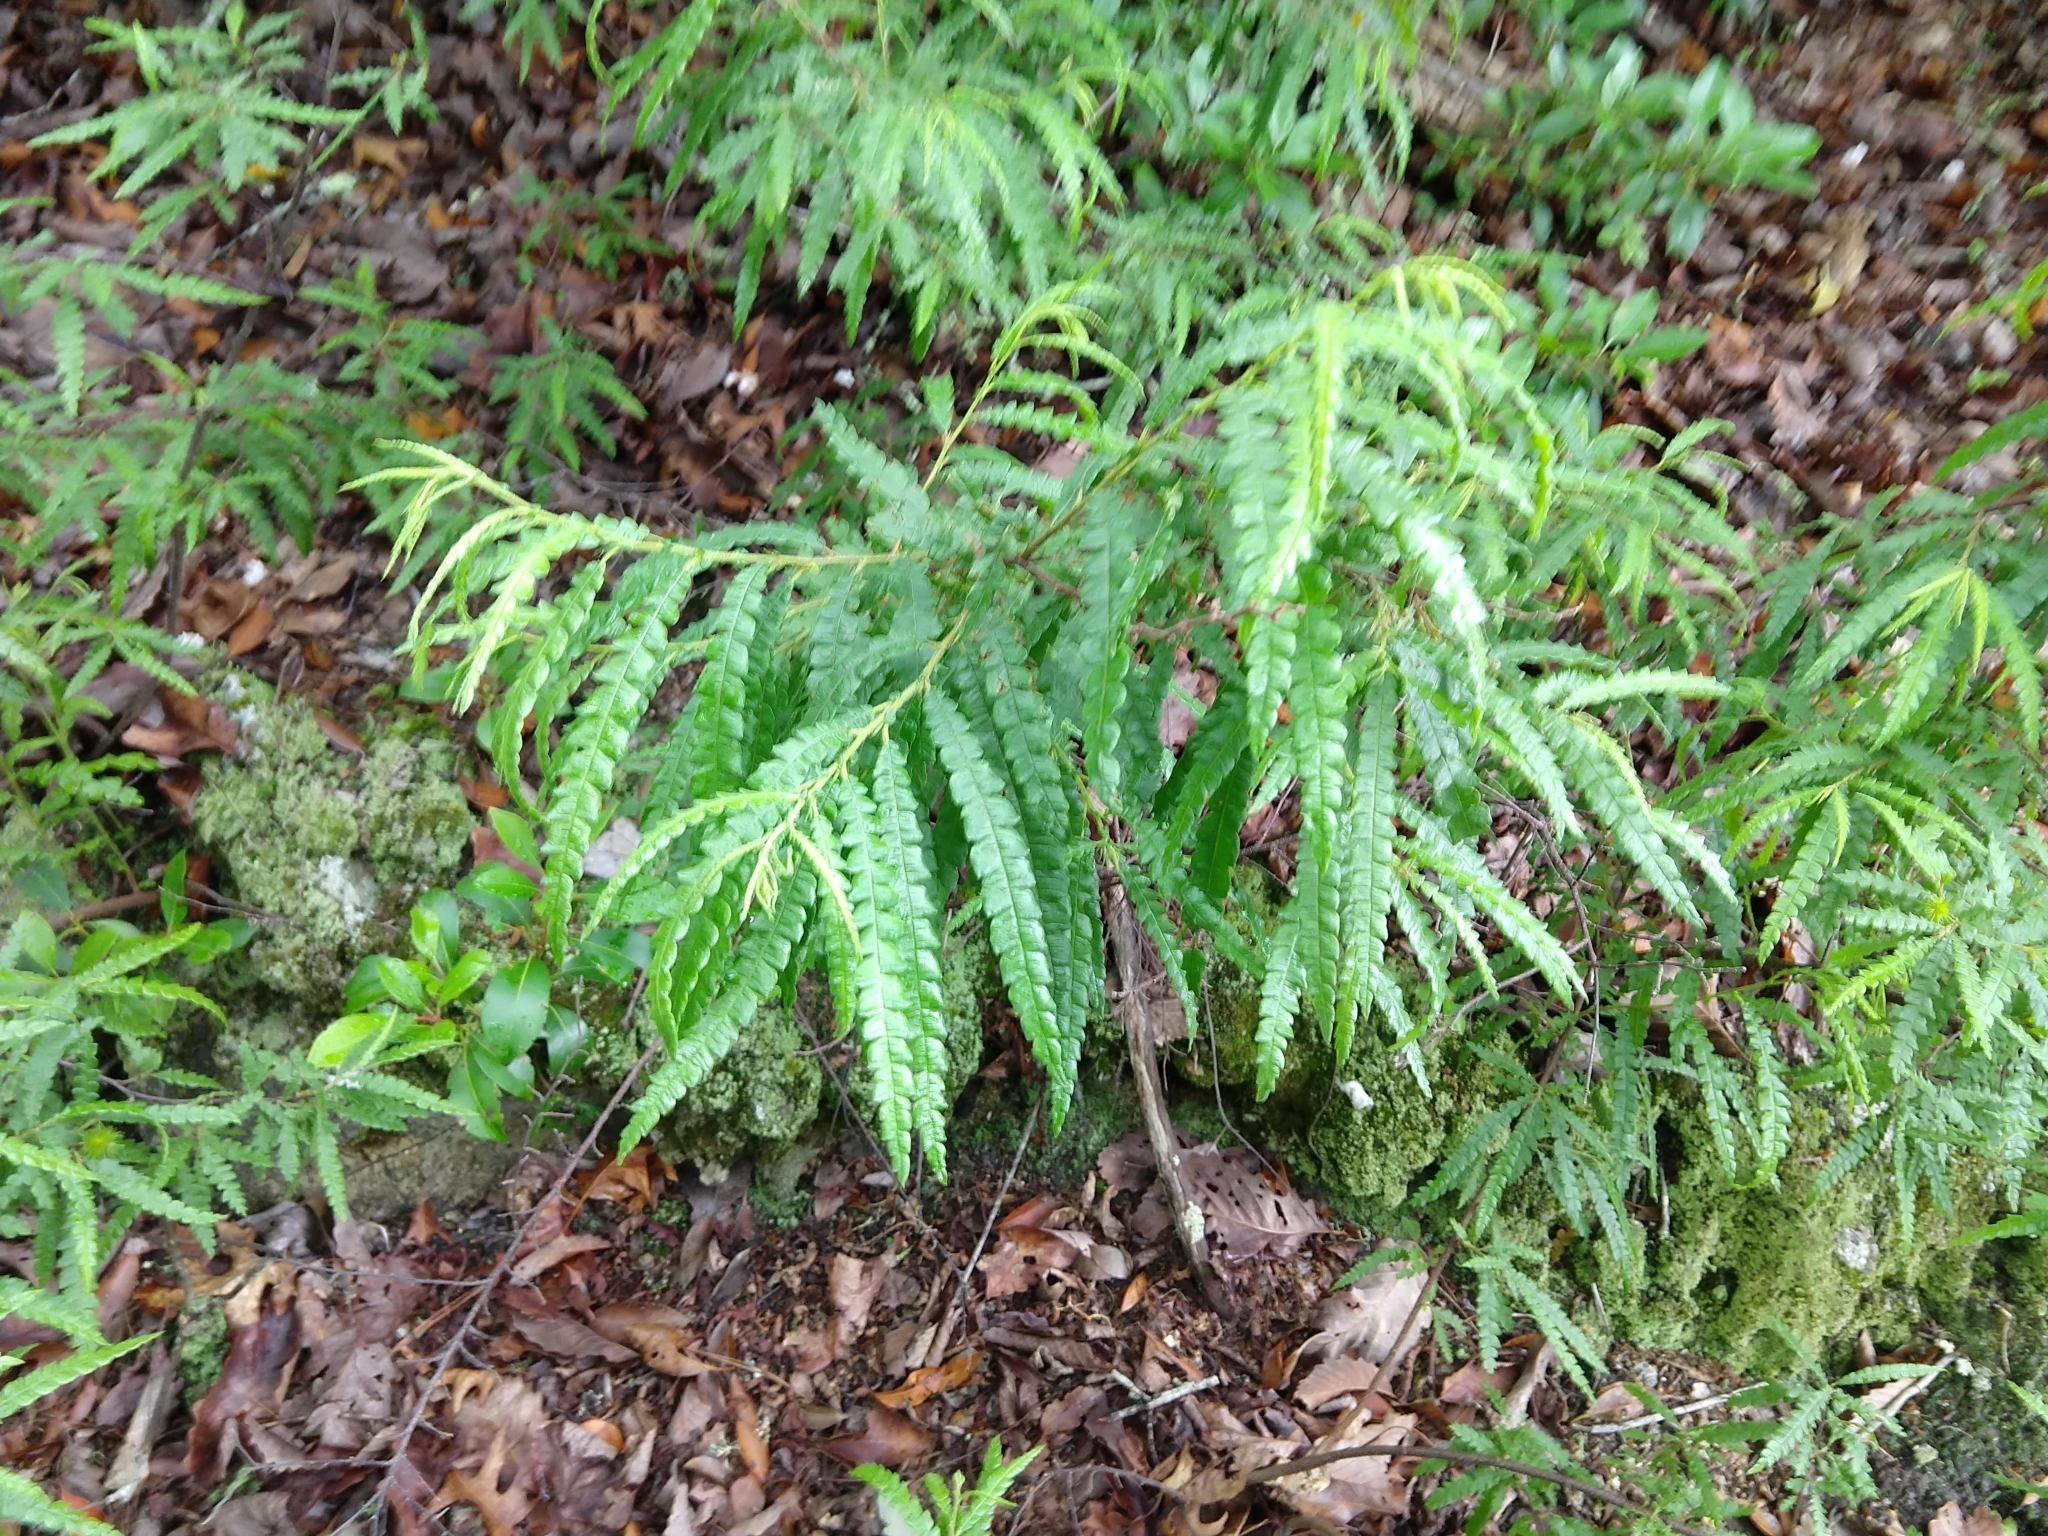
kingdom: Plantae
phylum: Tracheophyta
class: Magnoliopsida
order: Fagales
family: Myricaceae
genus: Comptonia
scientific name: Comptonia peregrina
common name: Sweet-fern
